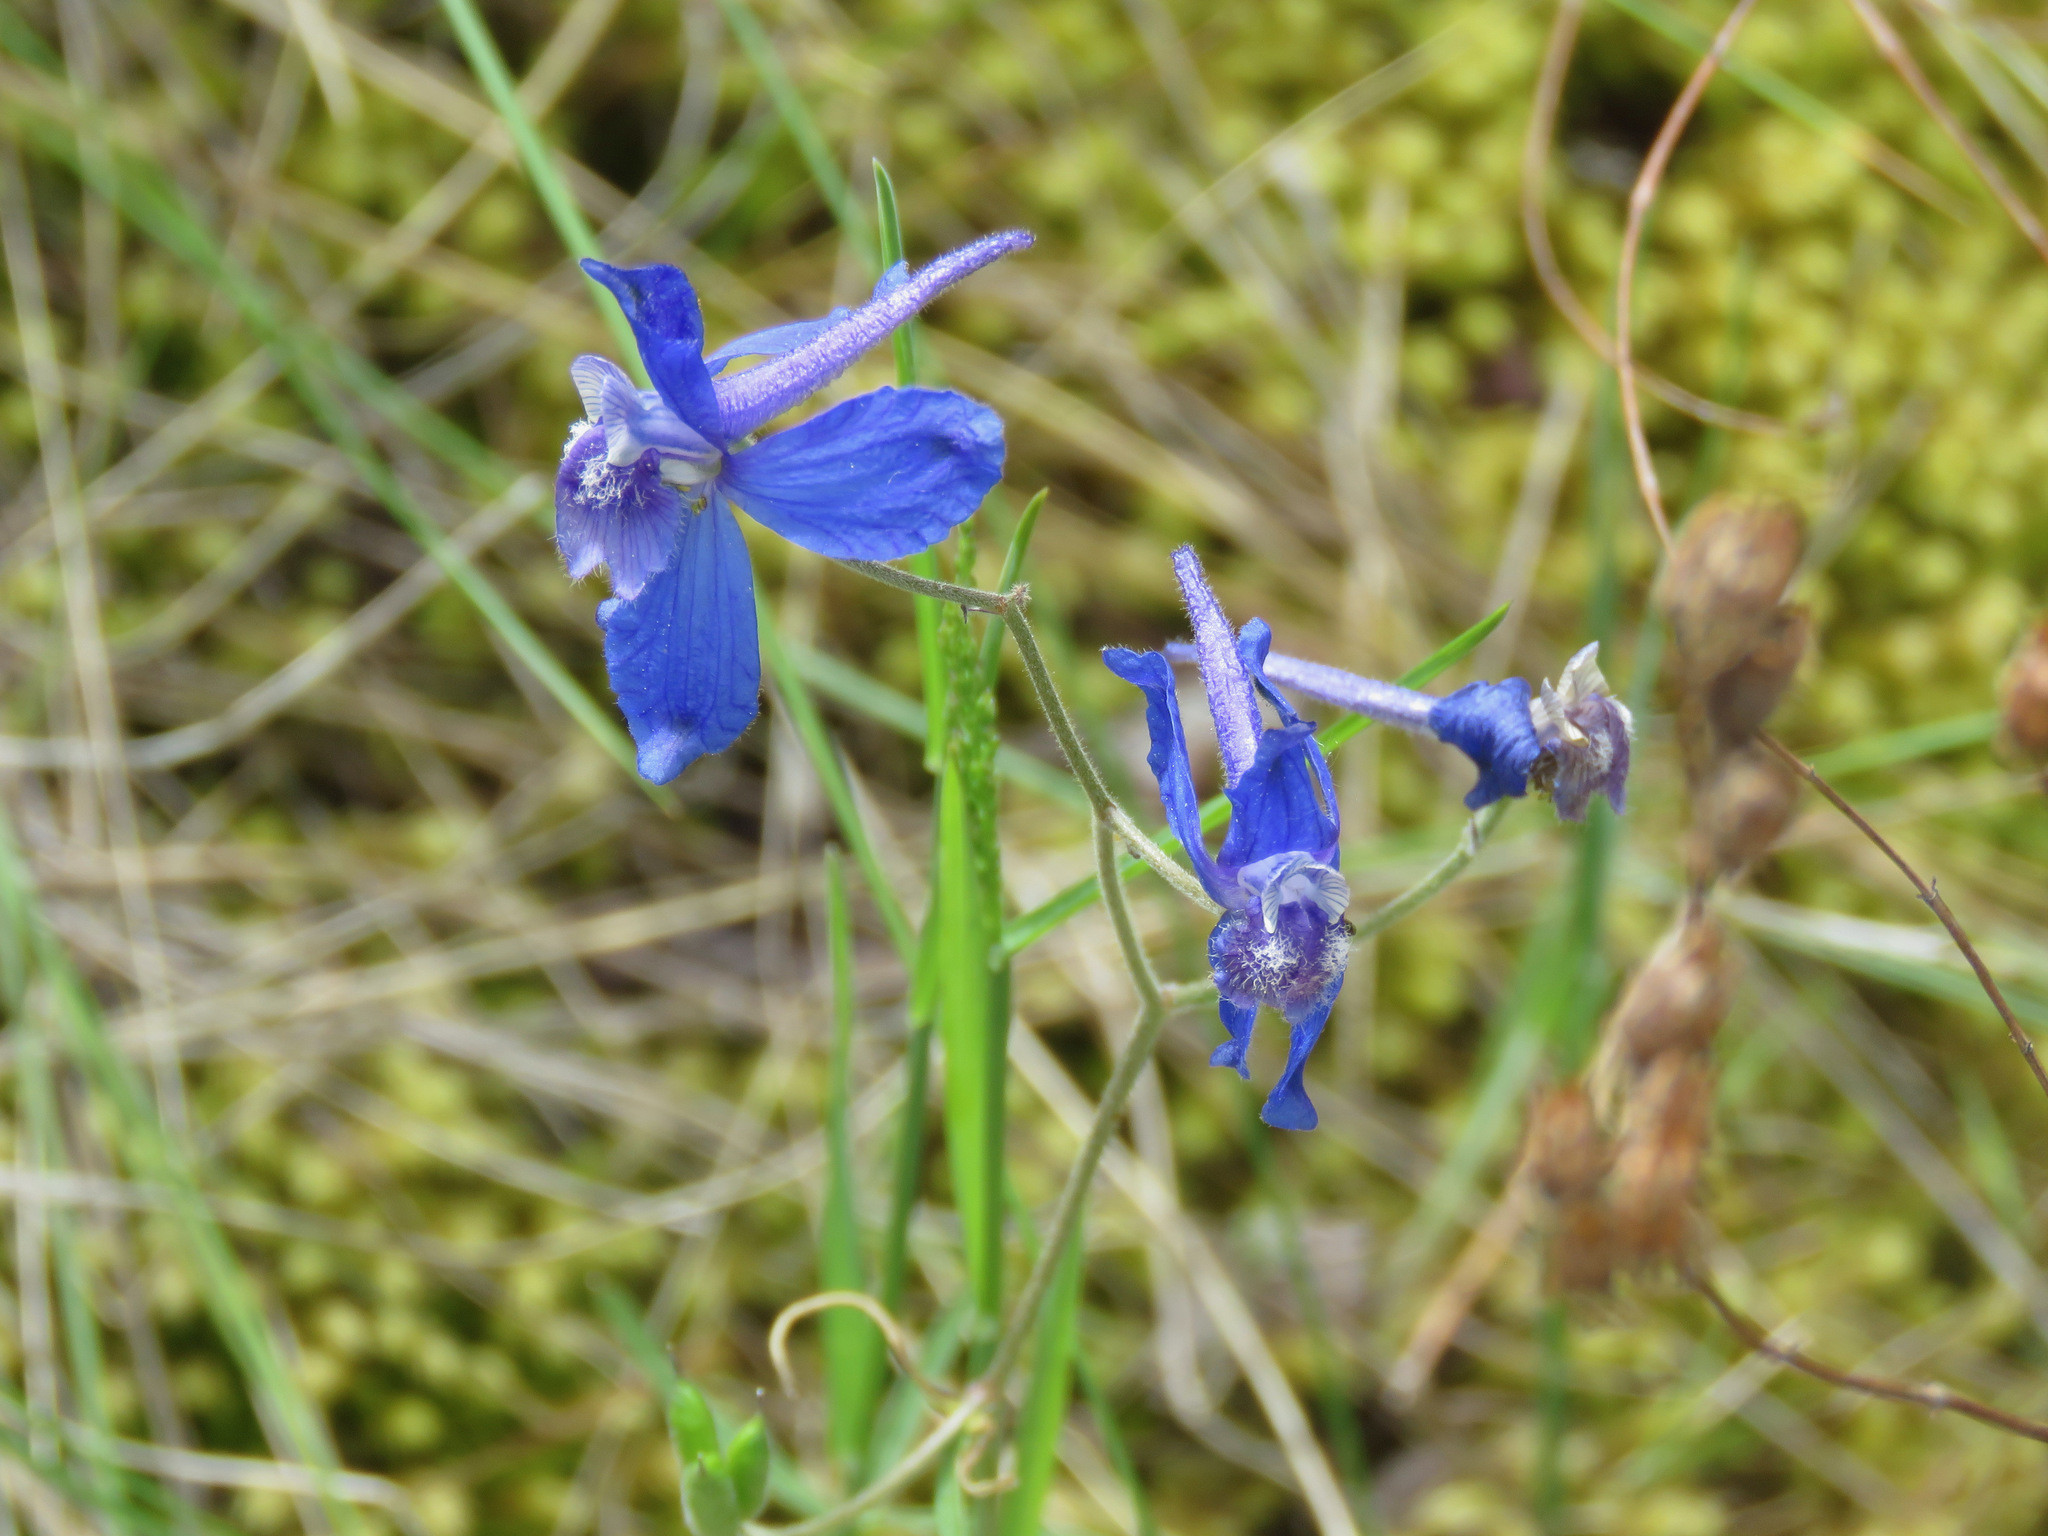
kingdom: Plantae
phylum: Tracheophyta
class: Magnoliopsida
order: Ranunculales
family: Ranunculaceae
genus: Delphinium
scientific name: Delphinium nuttallianum
